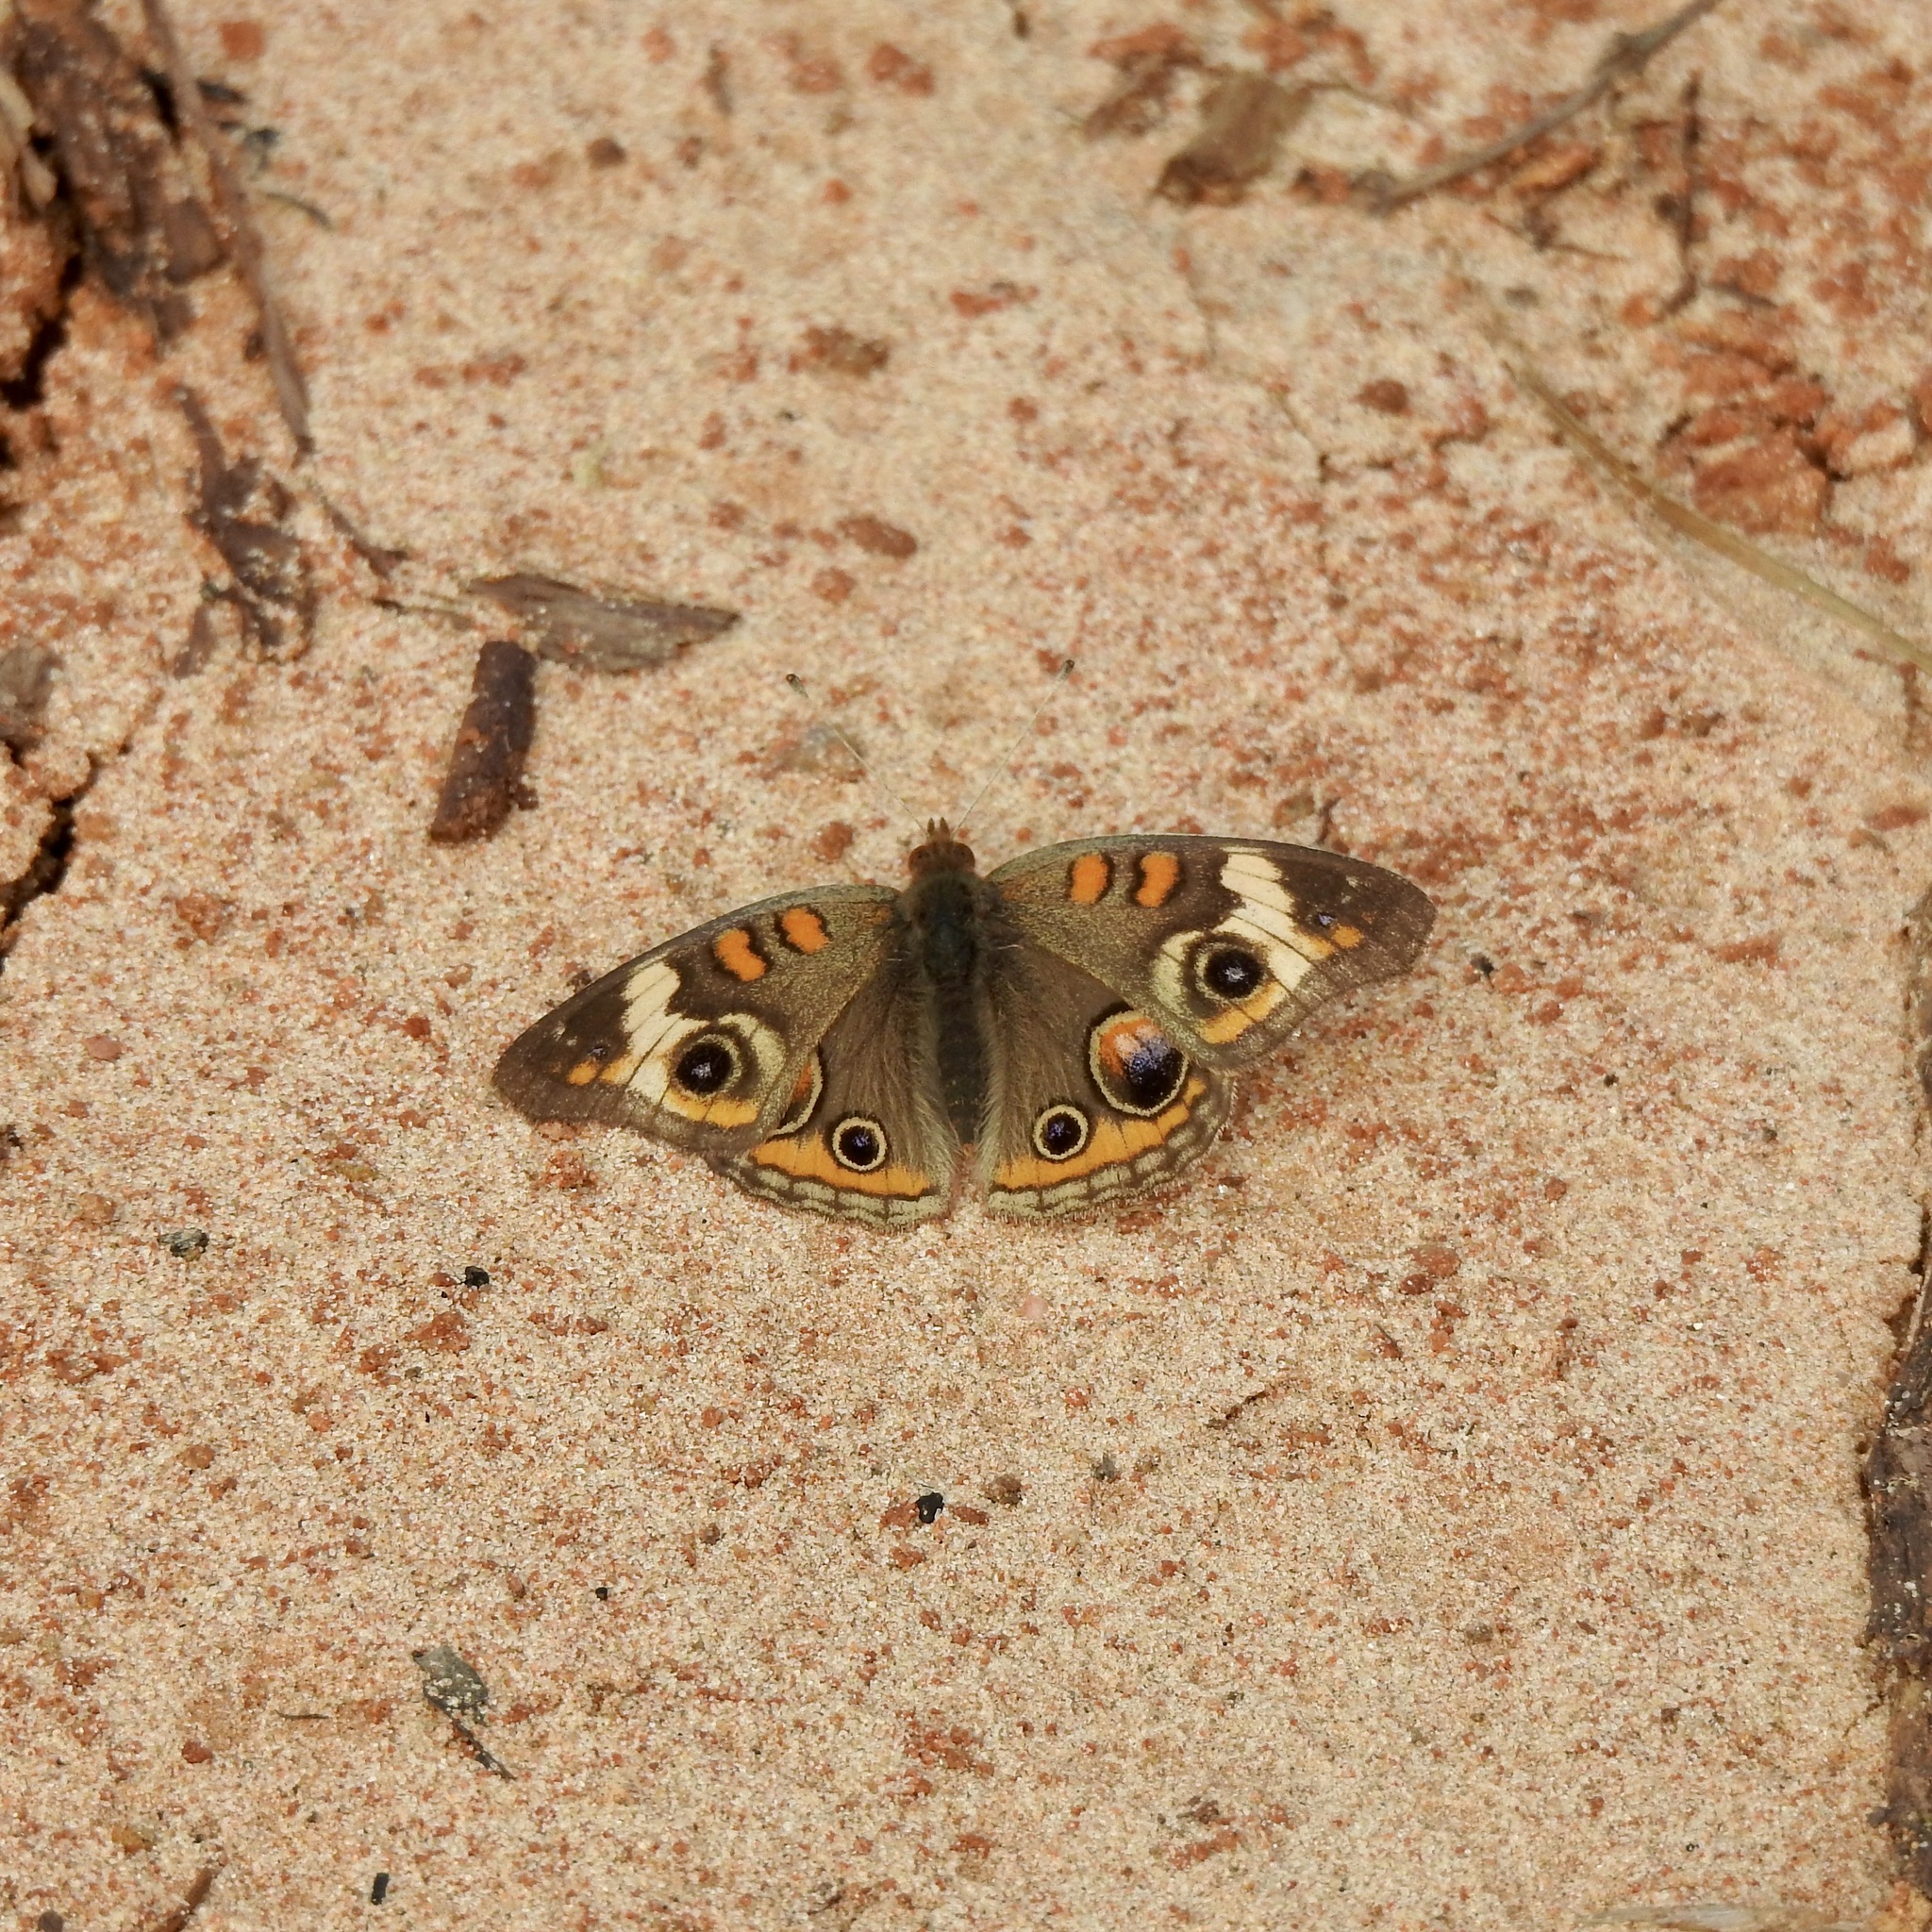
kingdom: Animalia
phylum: Arthropoda
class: Insecta
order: Lepidoptera
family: Nymphalidae
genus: Junonia
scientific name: Junonia coenia
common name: Common buckeye
